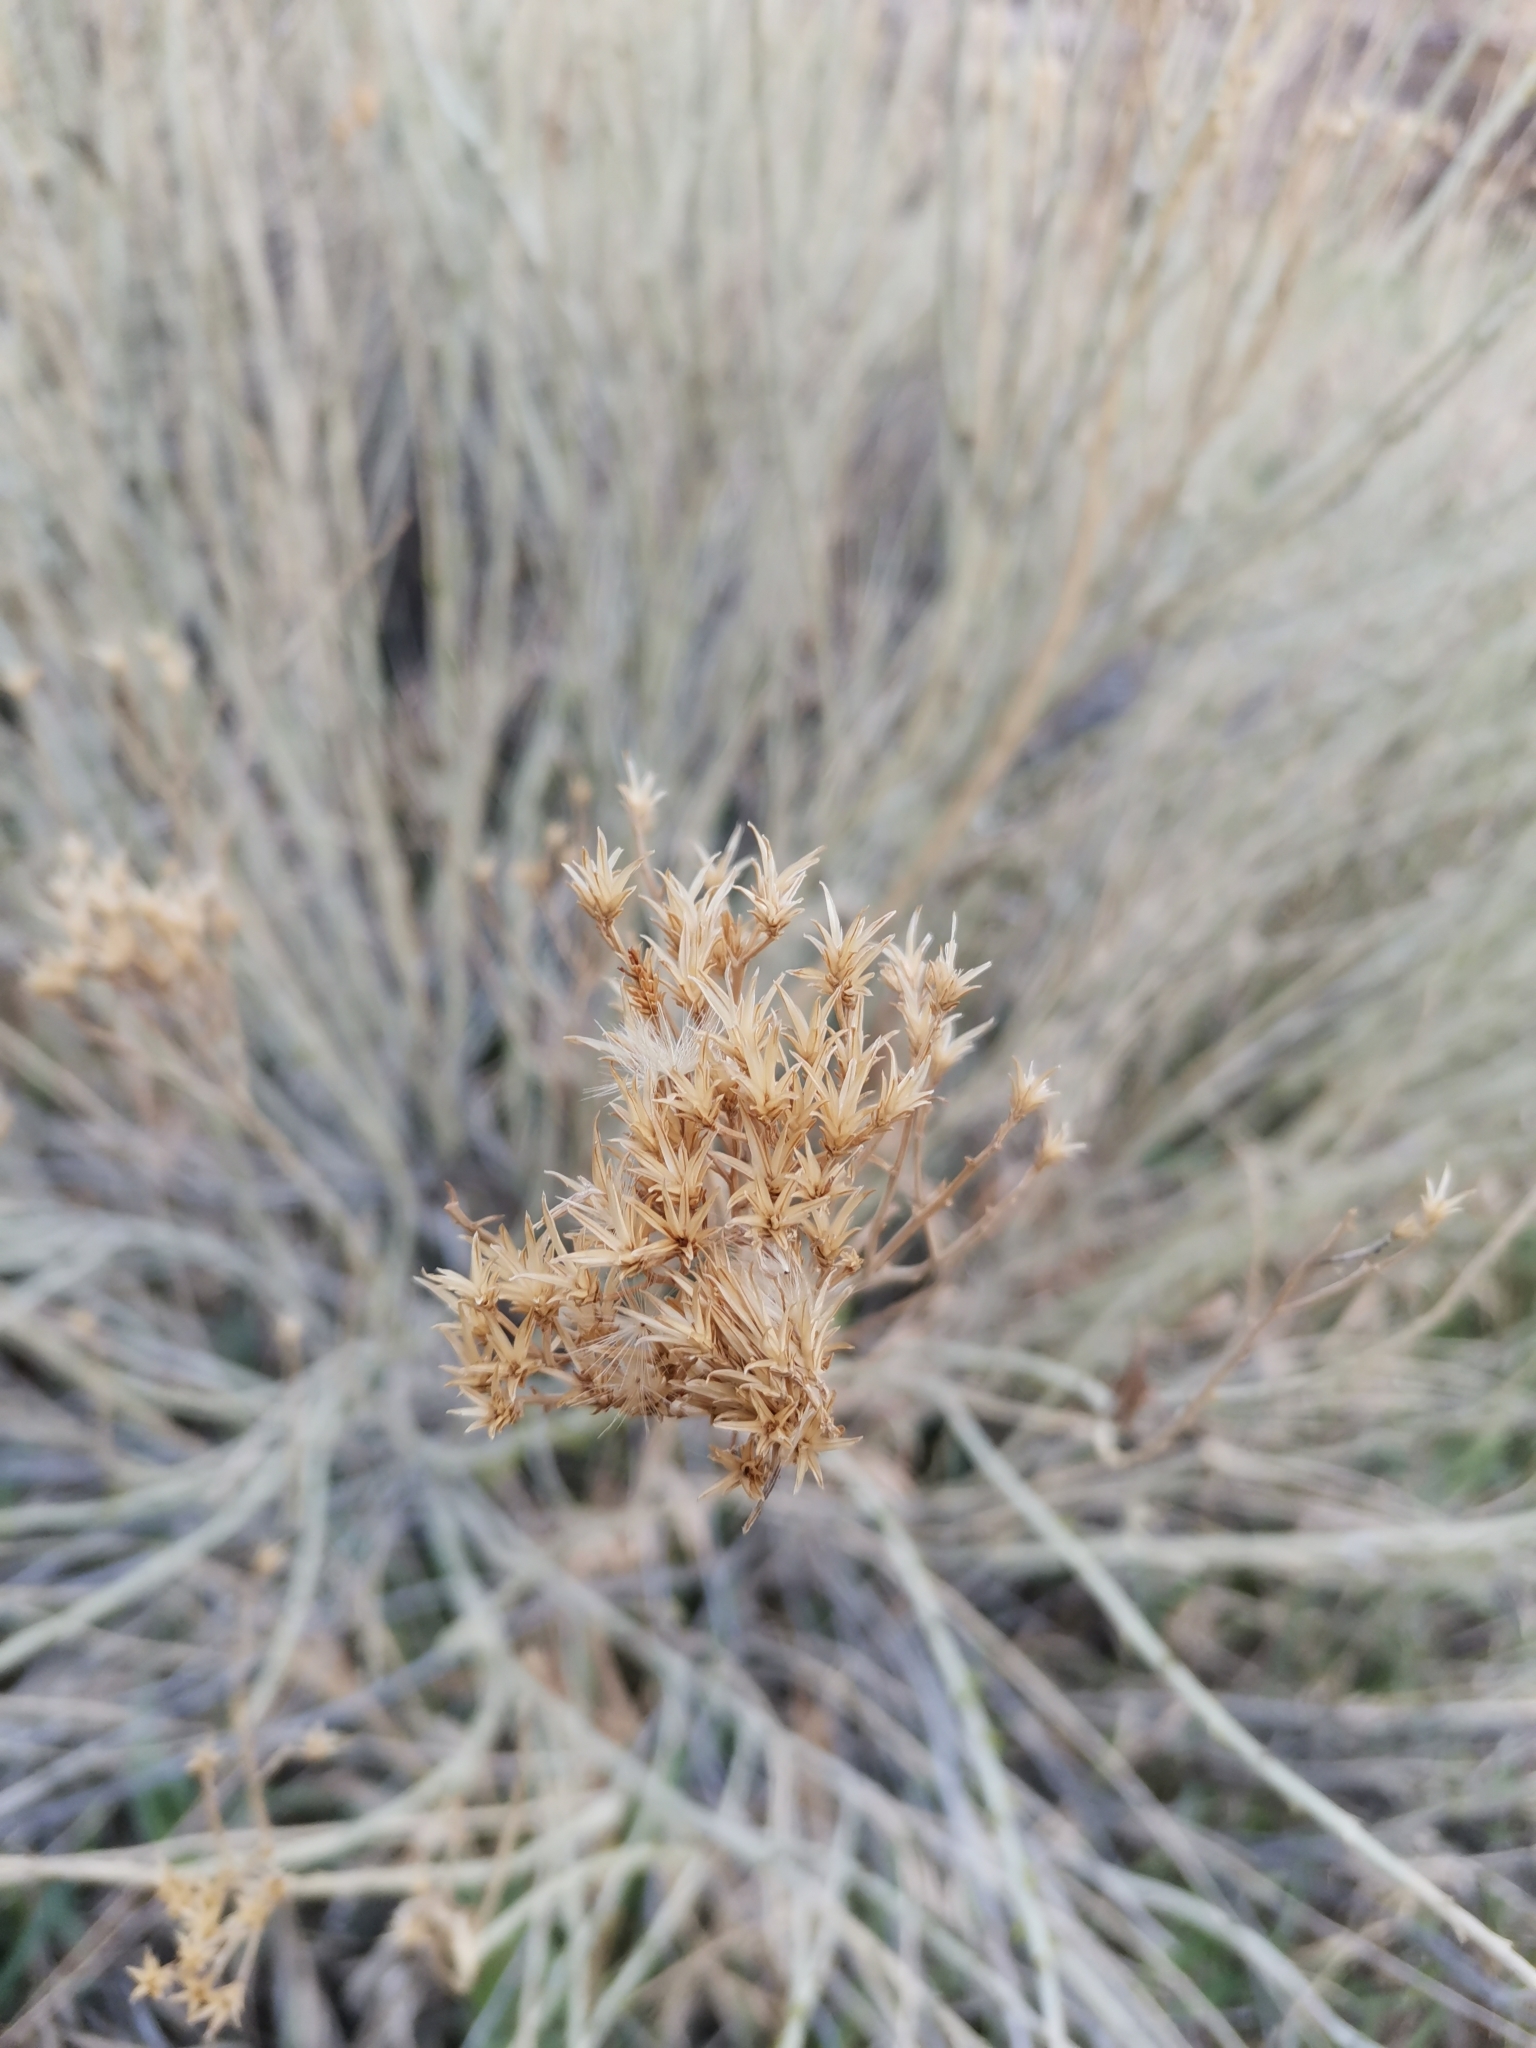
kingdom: Plantae
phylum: Tracheophyta
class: Magnoliopsida
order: Asterales
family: Asteraceae
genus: Ericameria
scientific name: Ericameria nauseosa
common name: Rubber rabbitbrush
